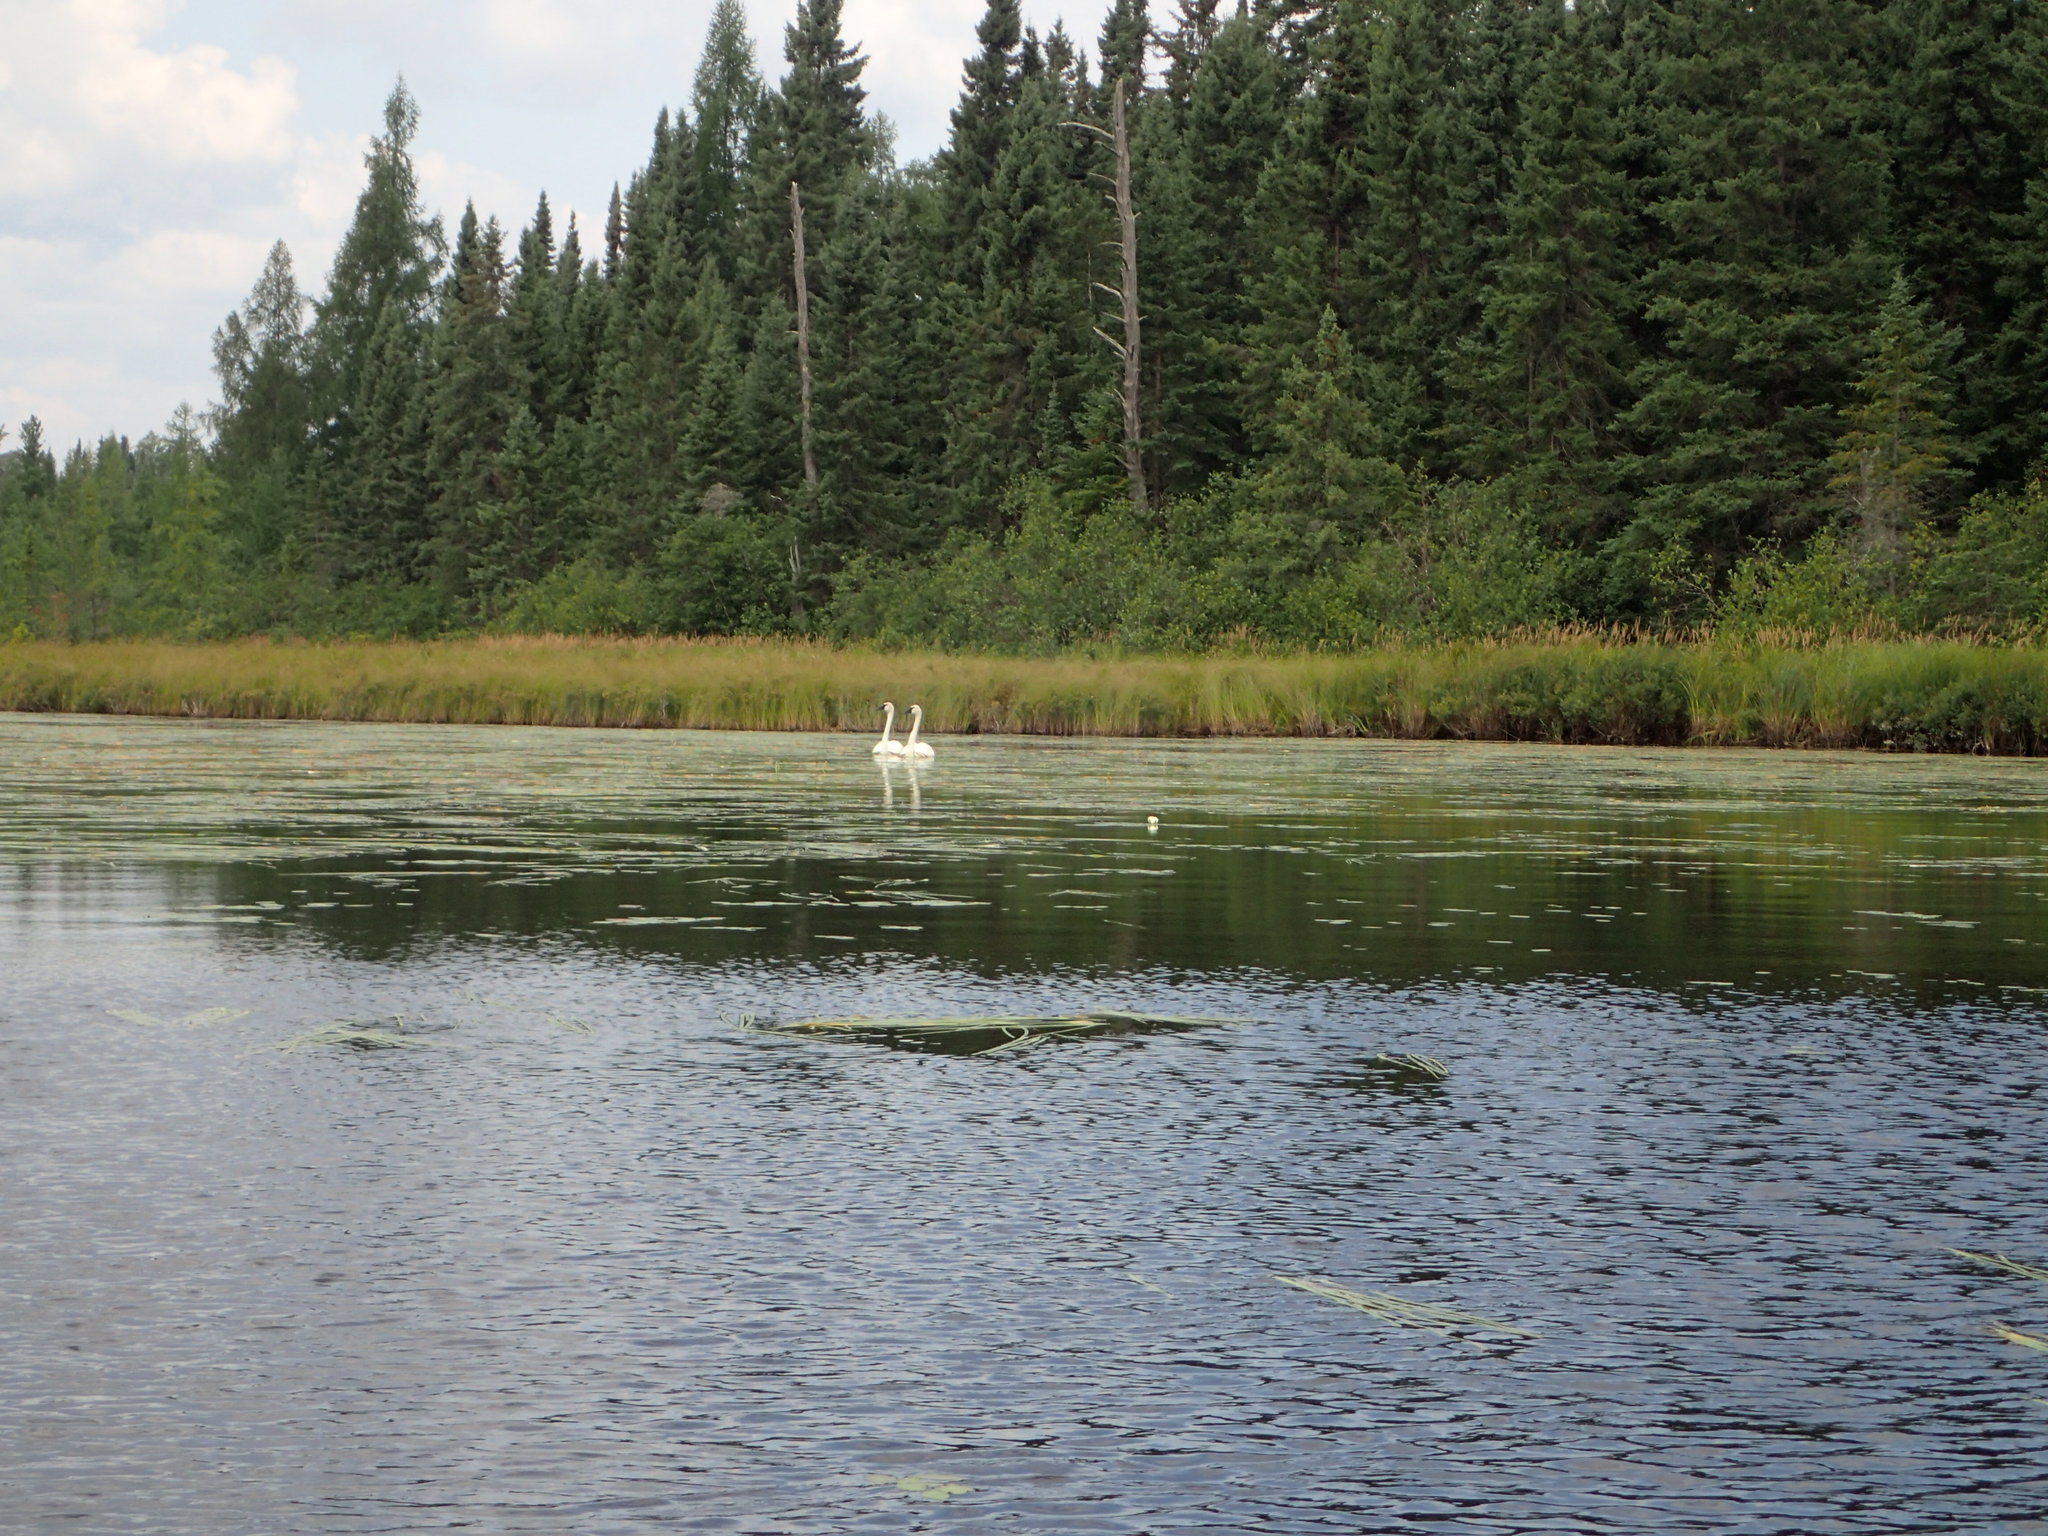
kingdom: Animalia
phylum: Chordata
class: Aves
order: Anseriformes
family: Anatidae
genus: Cygnus
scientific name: Cygnus buccinator
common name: Trumpeter swan
